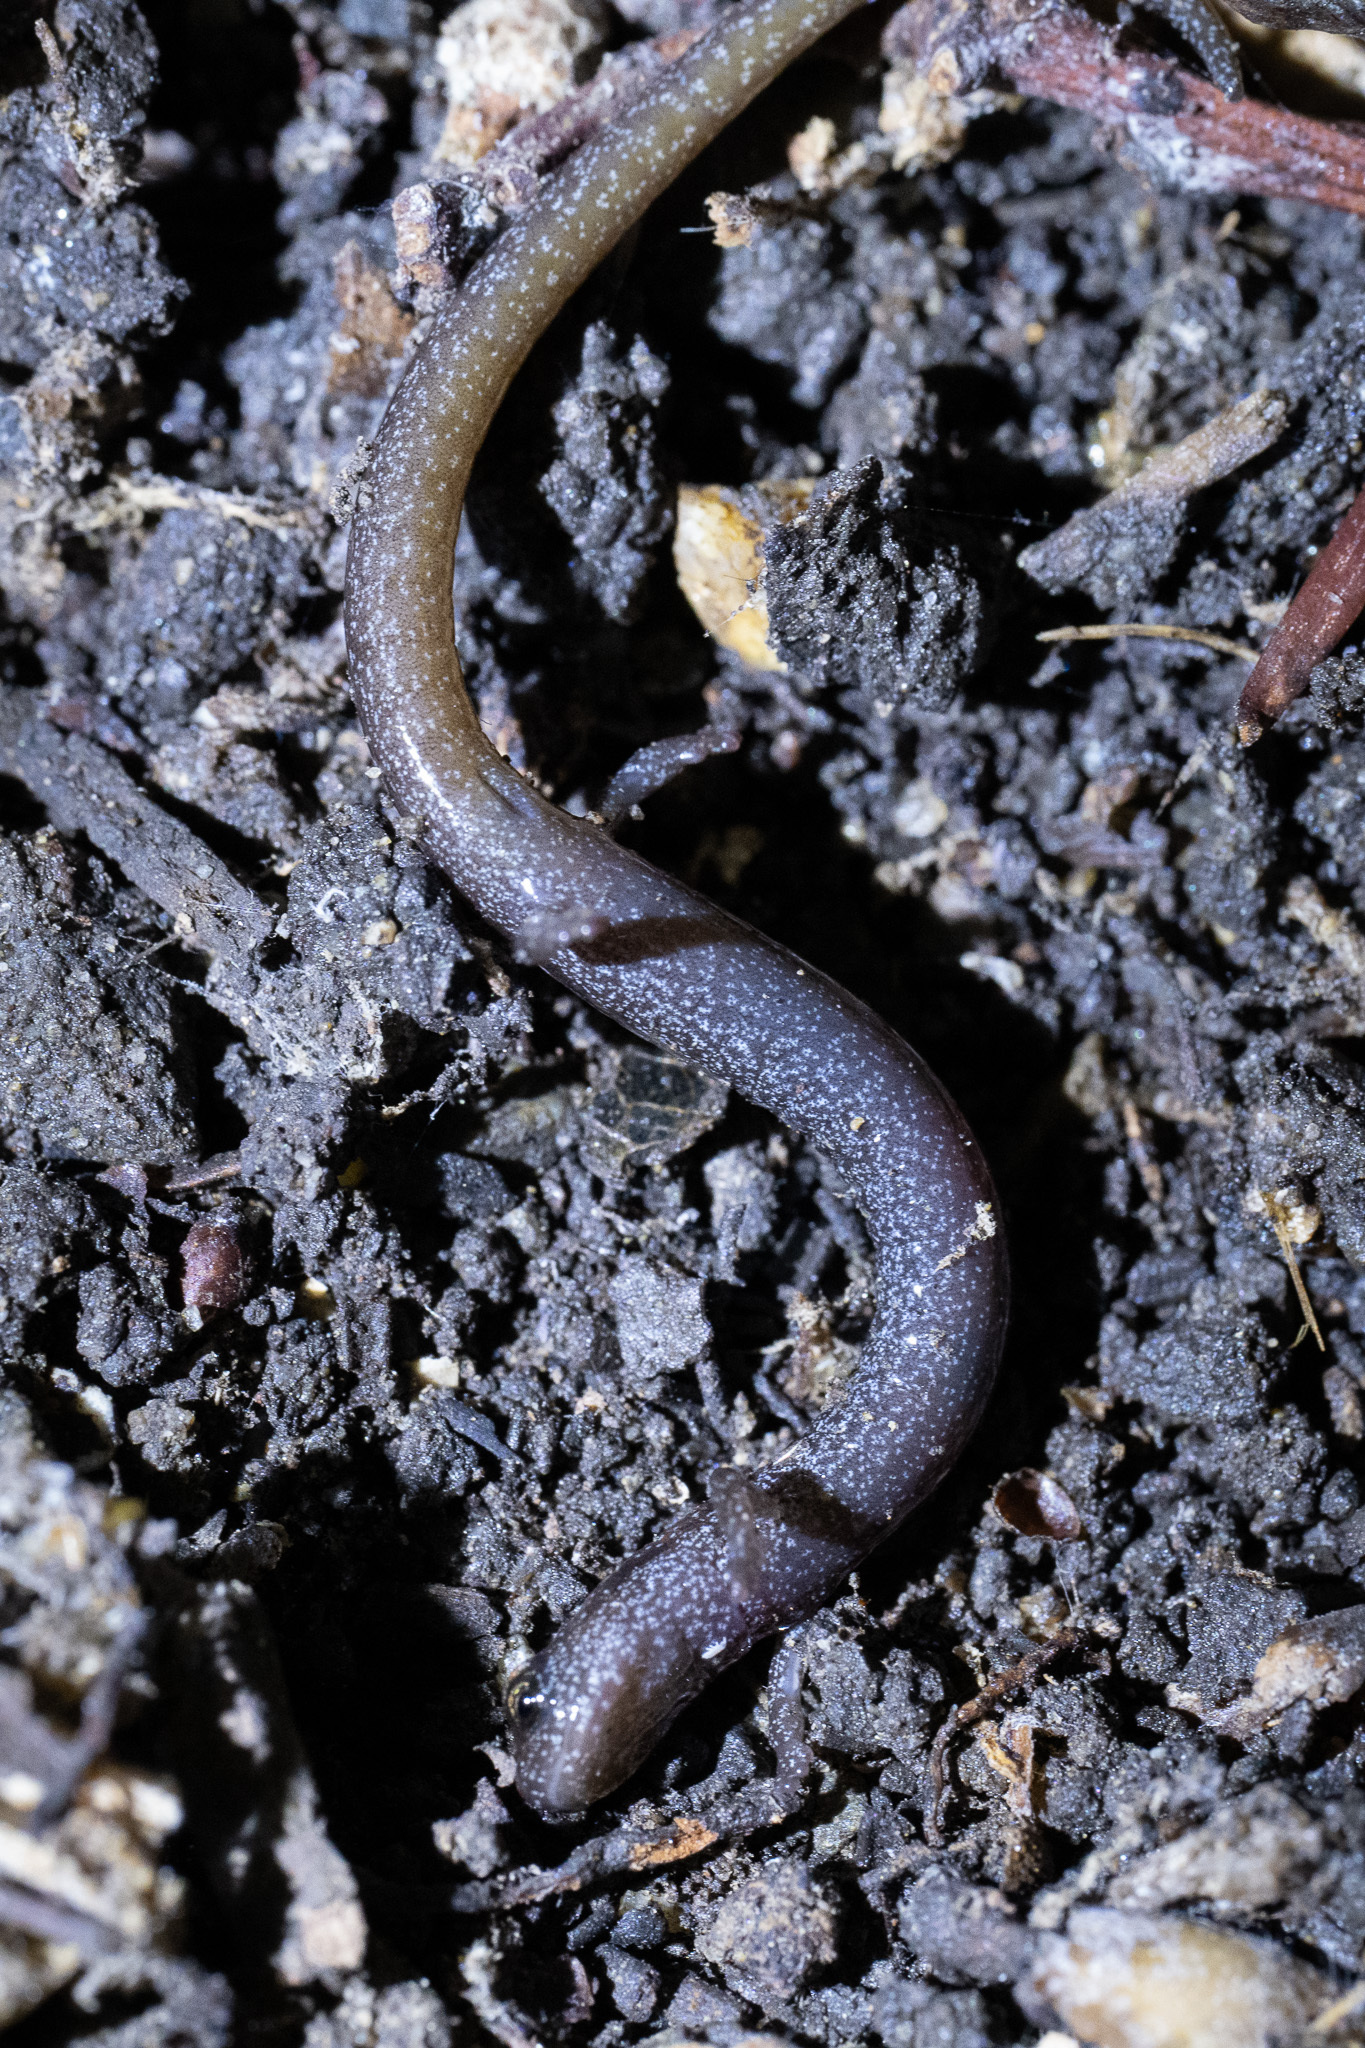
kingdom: Animalia
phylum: Chordata
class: Amphibia
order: Caudata
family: Plethodontidae
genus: Batrachoseps
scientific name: Batrachoseps attenuatus
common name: California slender salamander
